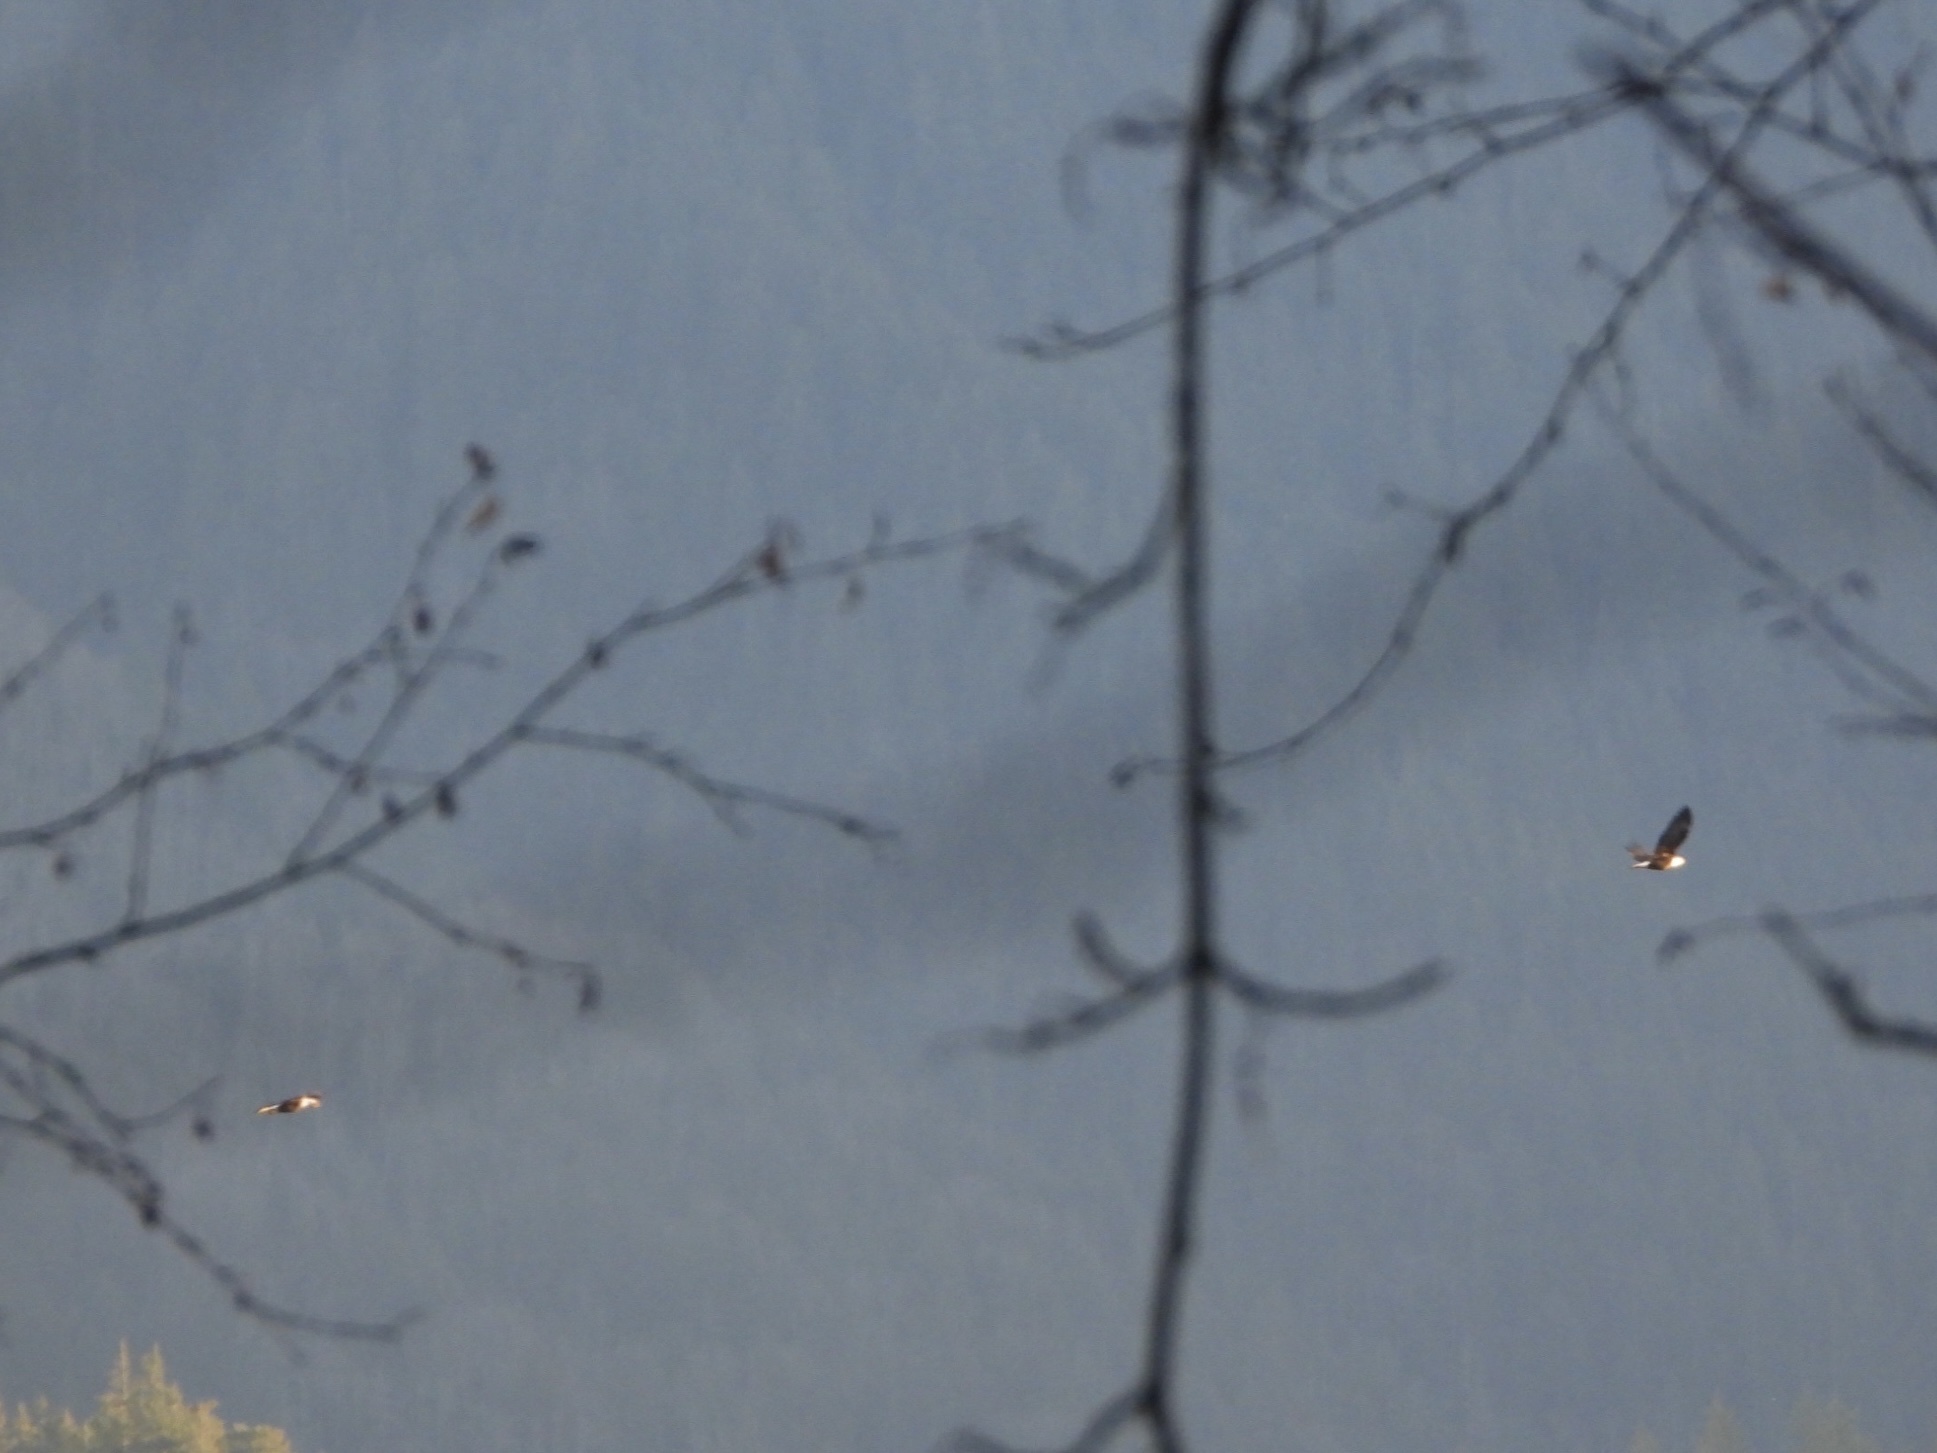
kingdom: Animalia
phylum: Chordata
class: Aves
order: Accipitriformes
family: Accipitridae
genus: Haliaeetus
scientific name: Haliaeetus leucocephalus
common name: Bald eagle
